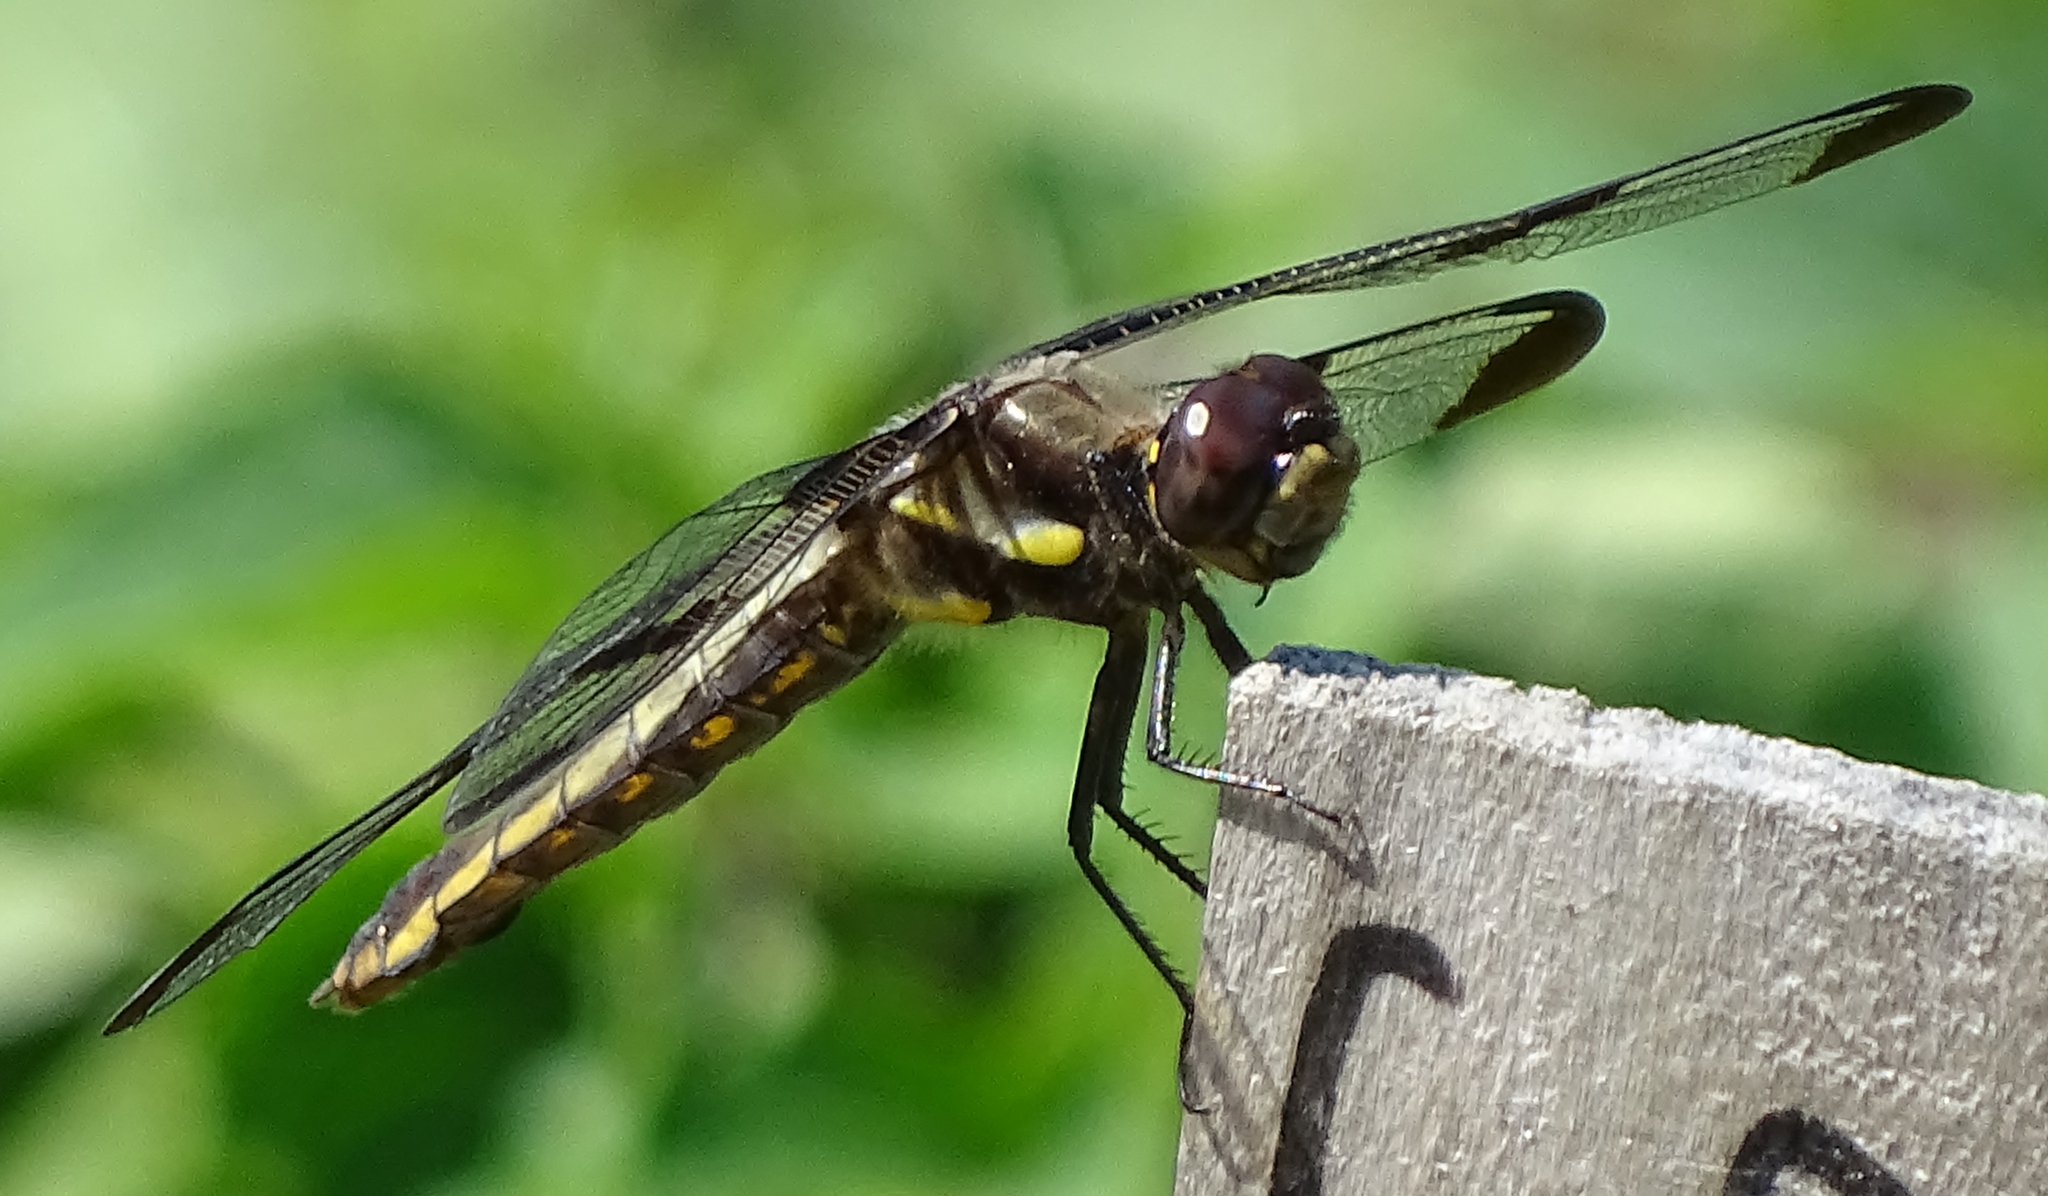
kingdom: Animalia
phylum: Arthropoda
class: Insecta
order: Odonata
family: Libellulidae
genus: Libellula
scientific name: Libellula pulchella
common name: Twelve-spotted skimmer
